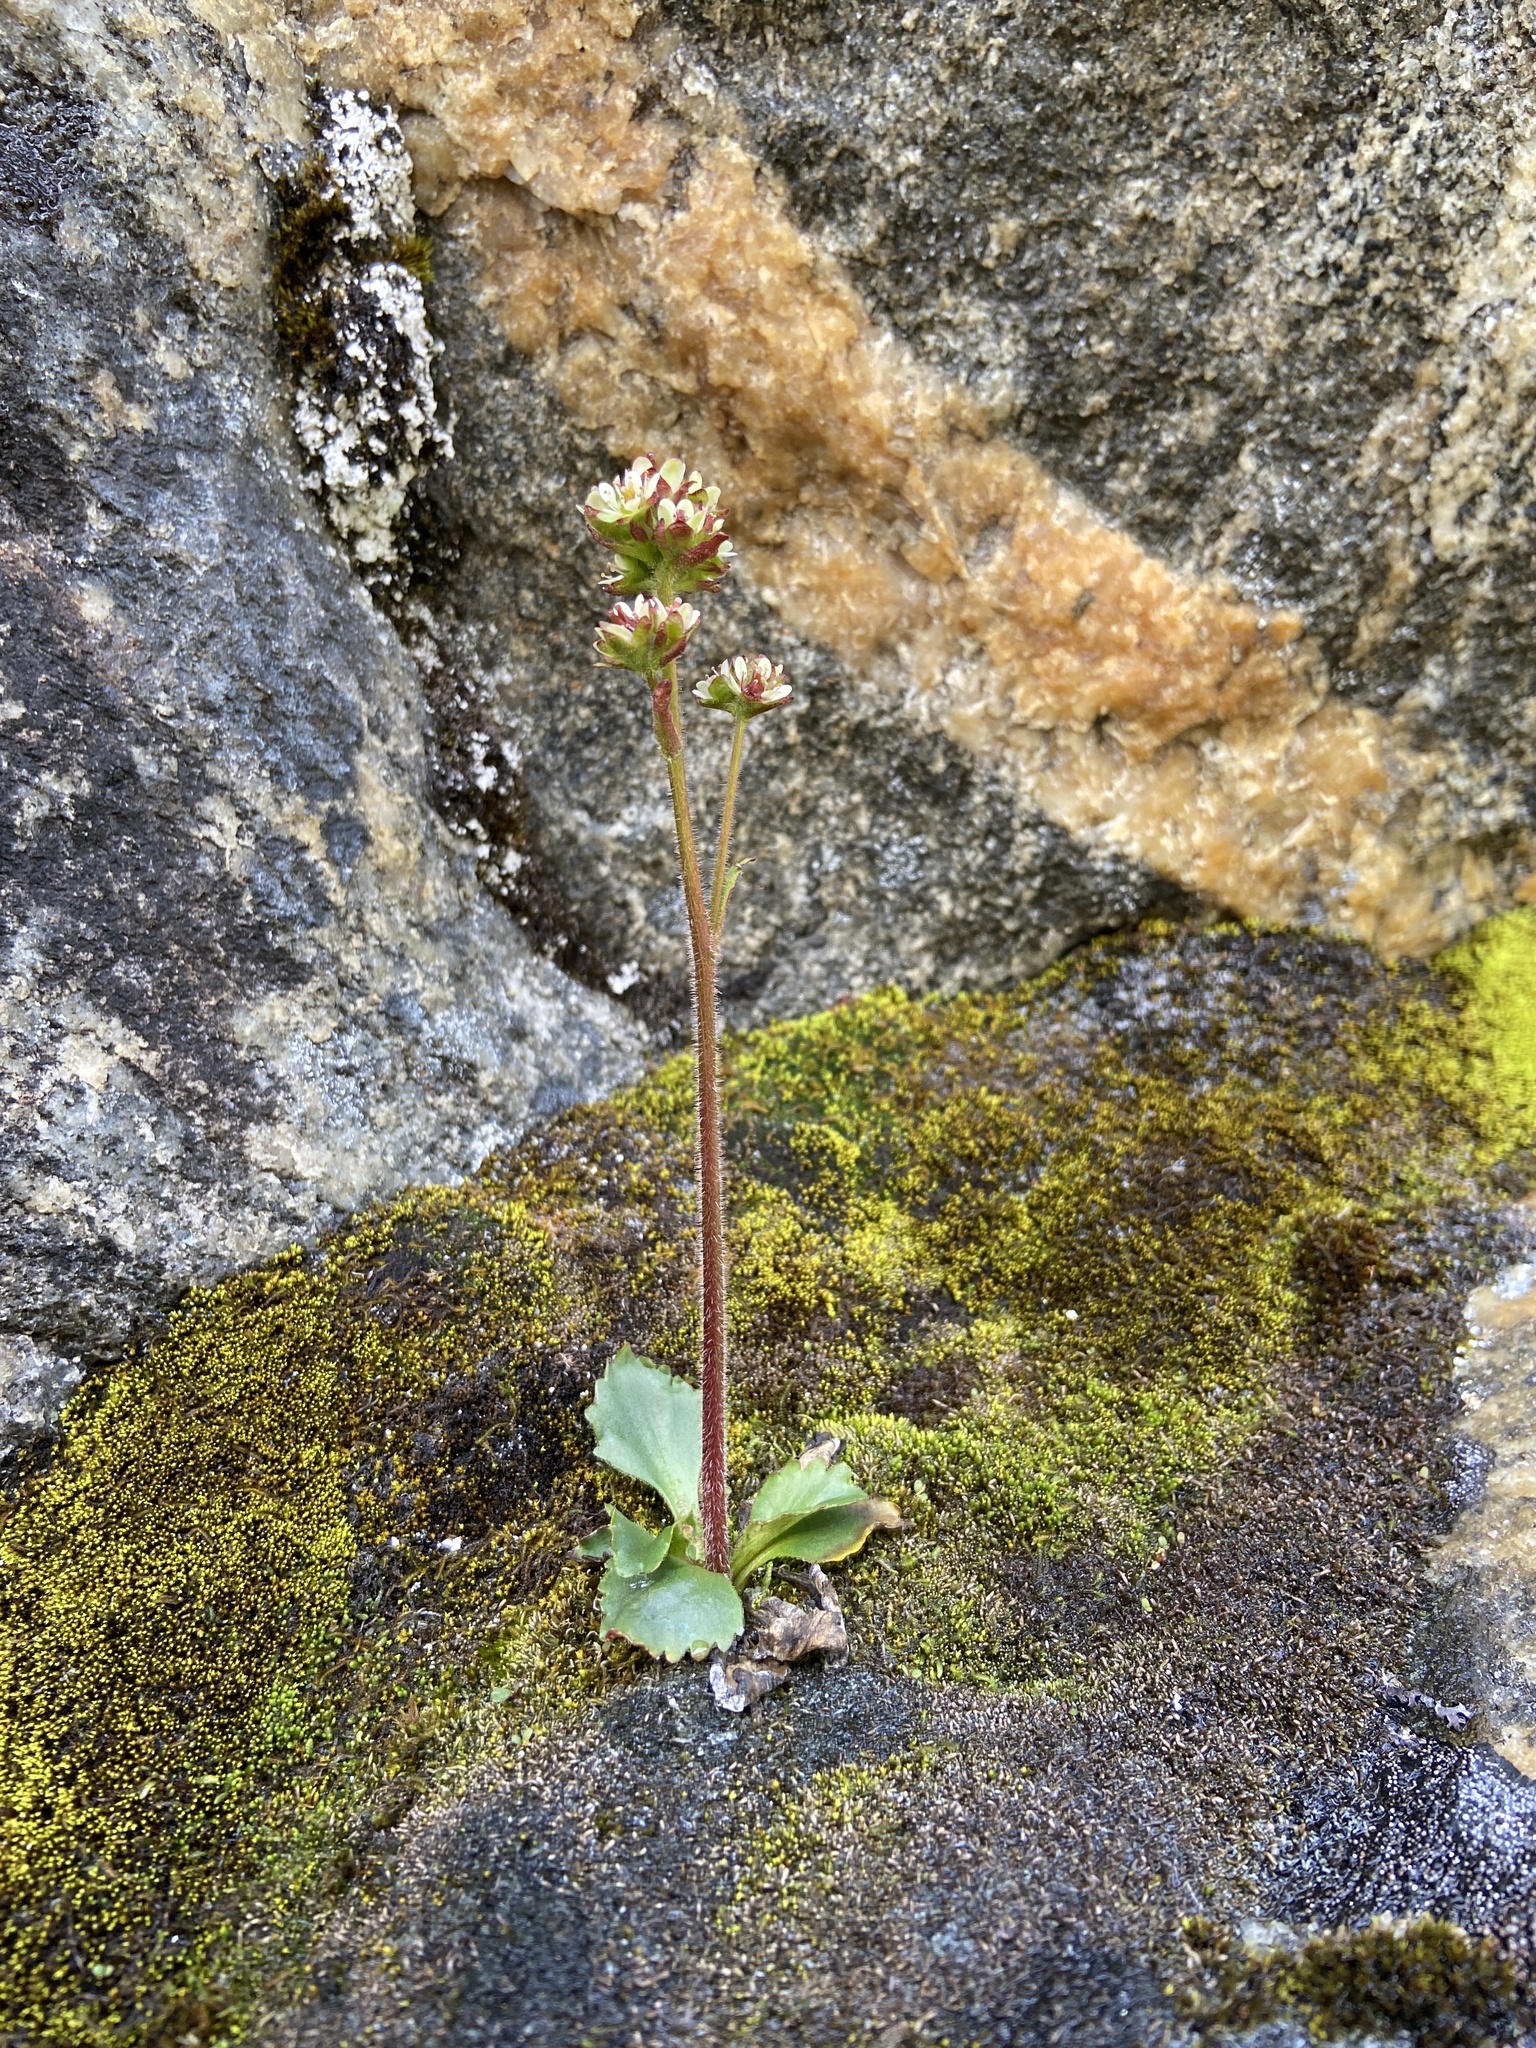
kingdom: Plantae
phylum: Tracheophyta
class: Magnoliopsida
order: Saxifragales
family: Saxifragaceae
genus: Micranthes
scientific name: Micranthes nivalis
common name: Alpine saxifrage
